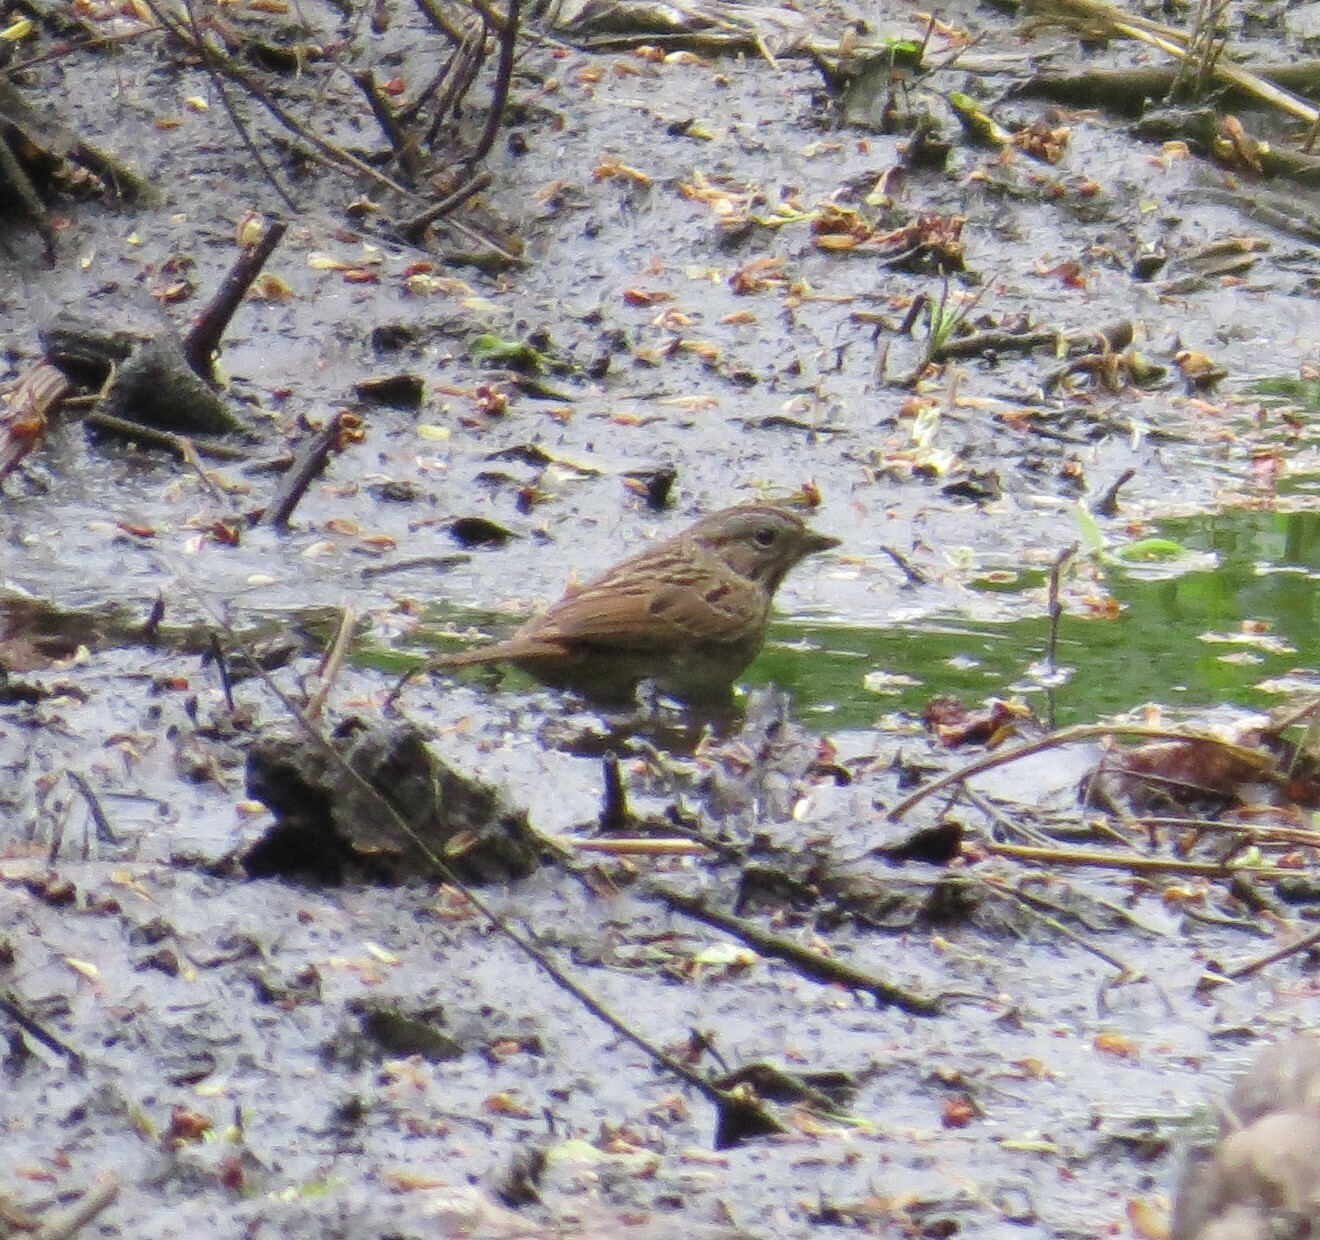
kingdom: Animalia
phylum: Chordata
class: Aves
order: Passeriformes
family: Passerellidae
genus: Melospiza
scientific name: Melospiza melodia
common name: Song sparrow
